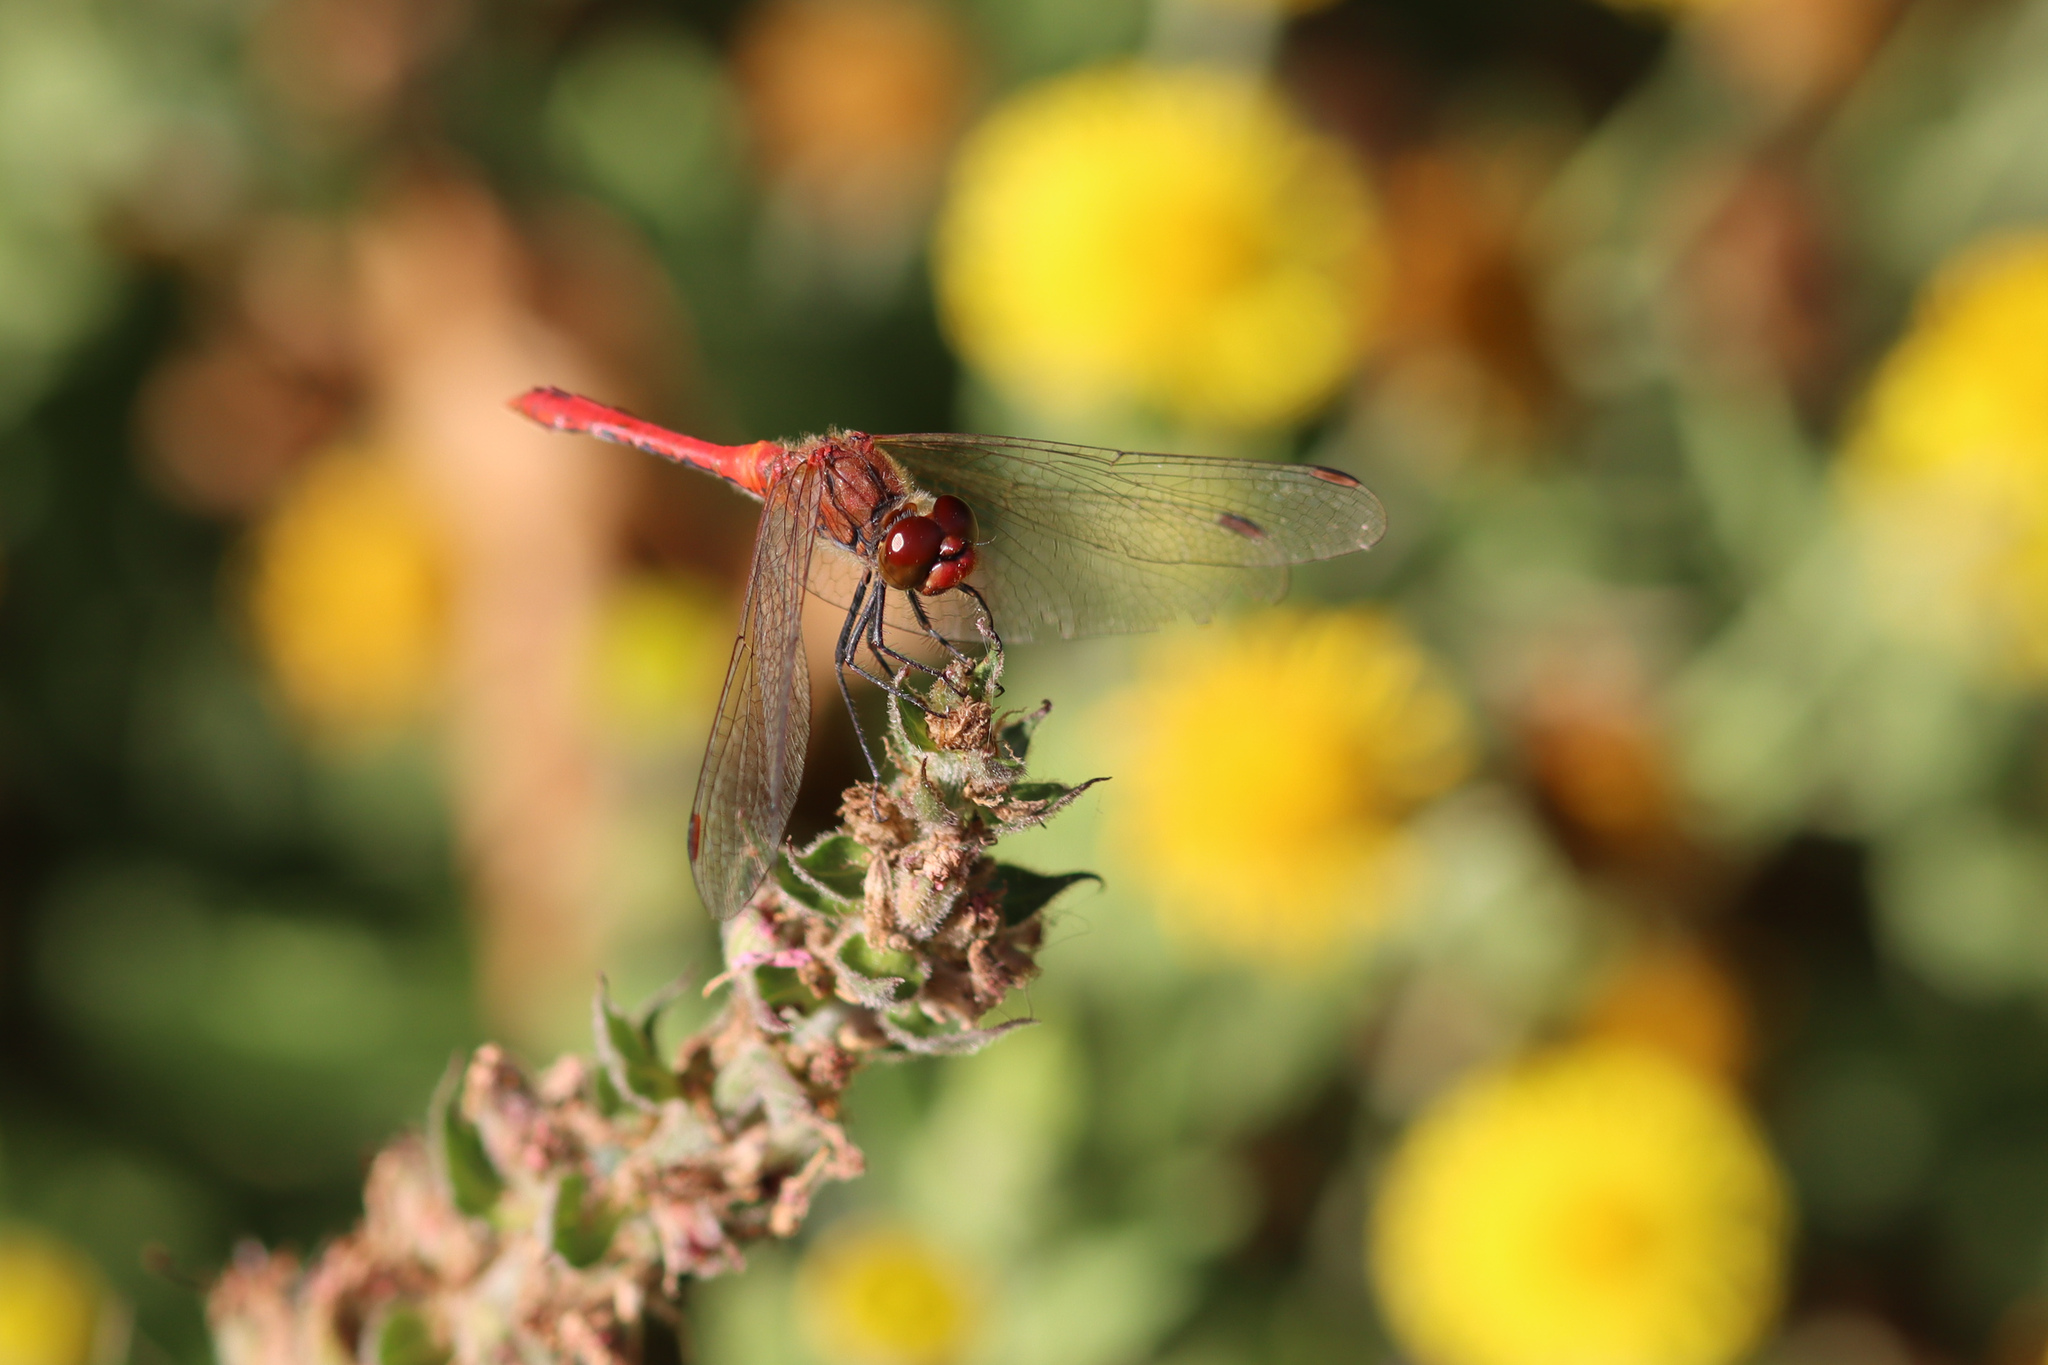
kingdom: Animalia
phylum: Arthropoda
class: Insecta
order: Odonata
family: Libellulidae
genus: Sympetrum
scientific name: Sympetrum sanguineum
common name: Ruddy darter
